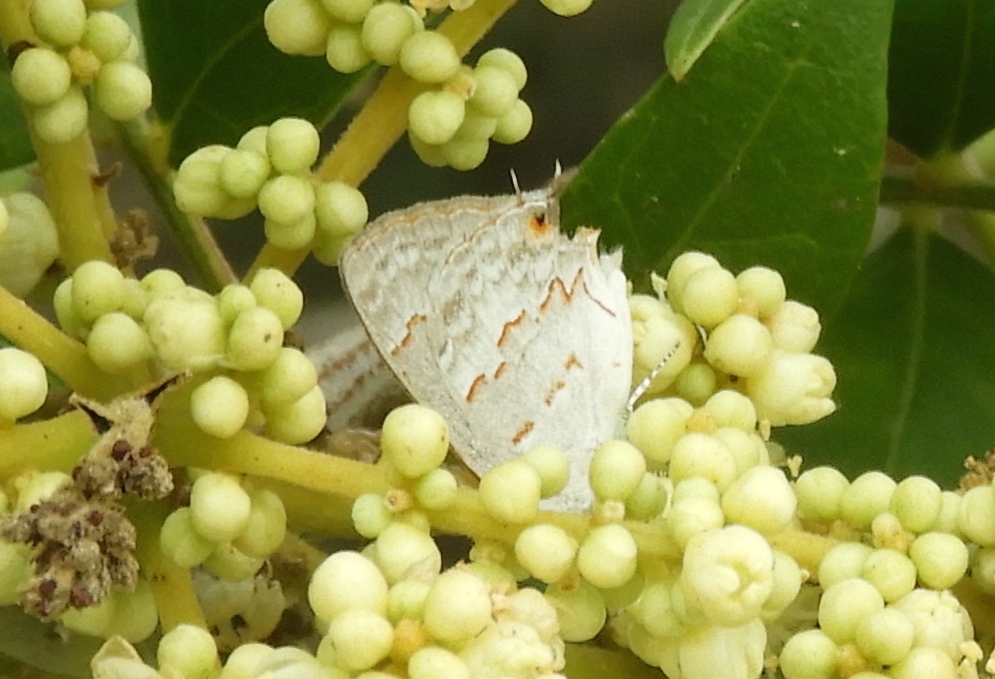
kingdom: Animalia
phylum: Arthropoda
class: Insecta
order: Lepidoptera
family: Lycaenidae
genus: Ministrymon
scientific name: Ministrymon clytie
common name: Clytie ministreak
